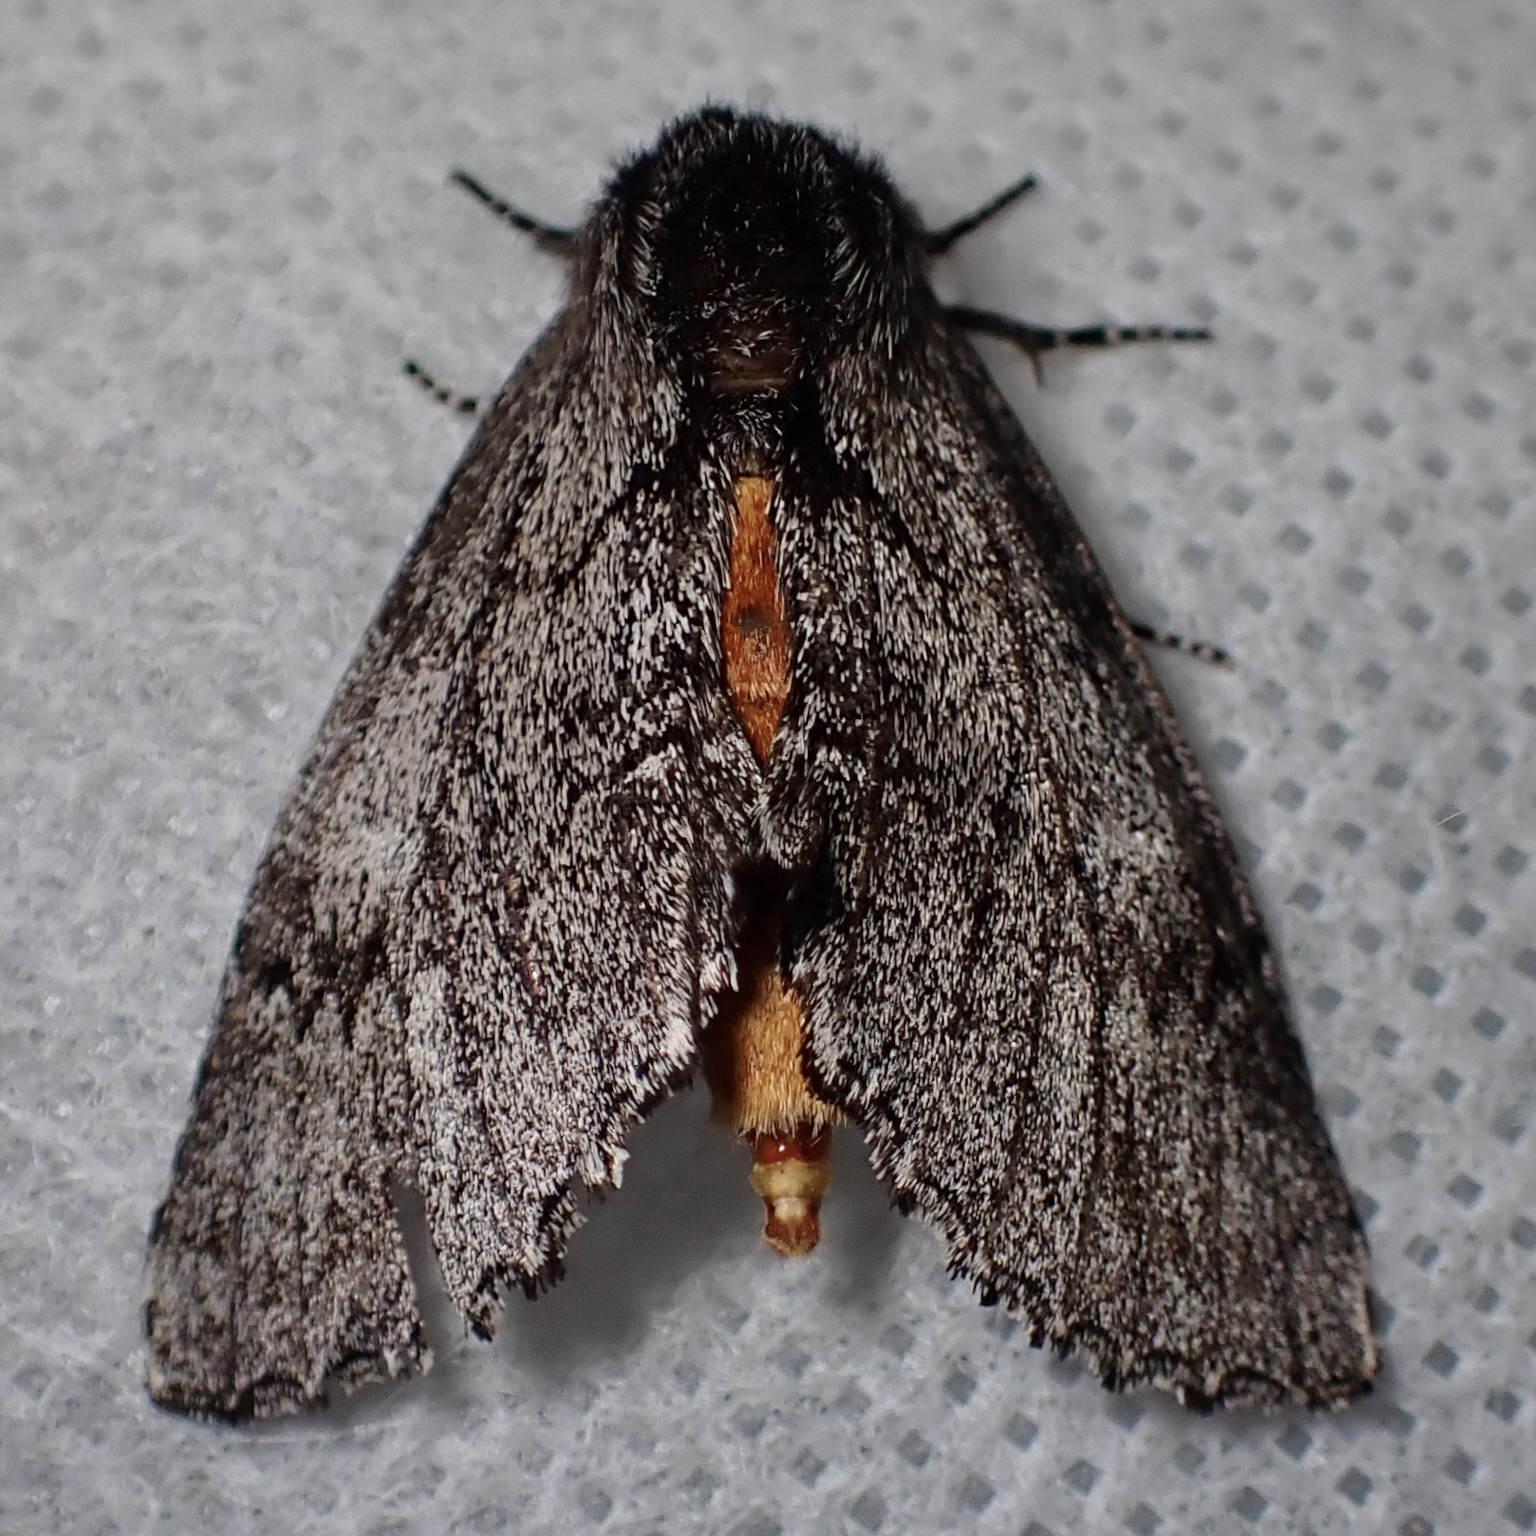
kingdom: Animalia
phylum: Arthropoda
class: Insecta
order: Lepidoptera
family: Notodontidae
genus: Cargida
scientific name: Cargida pyrrha
